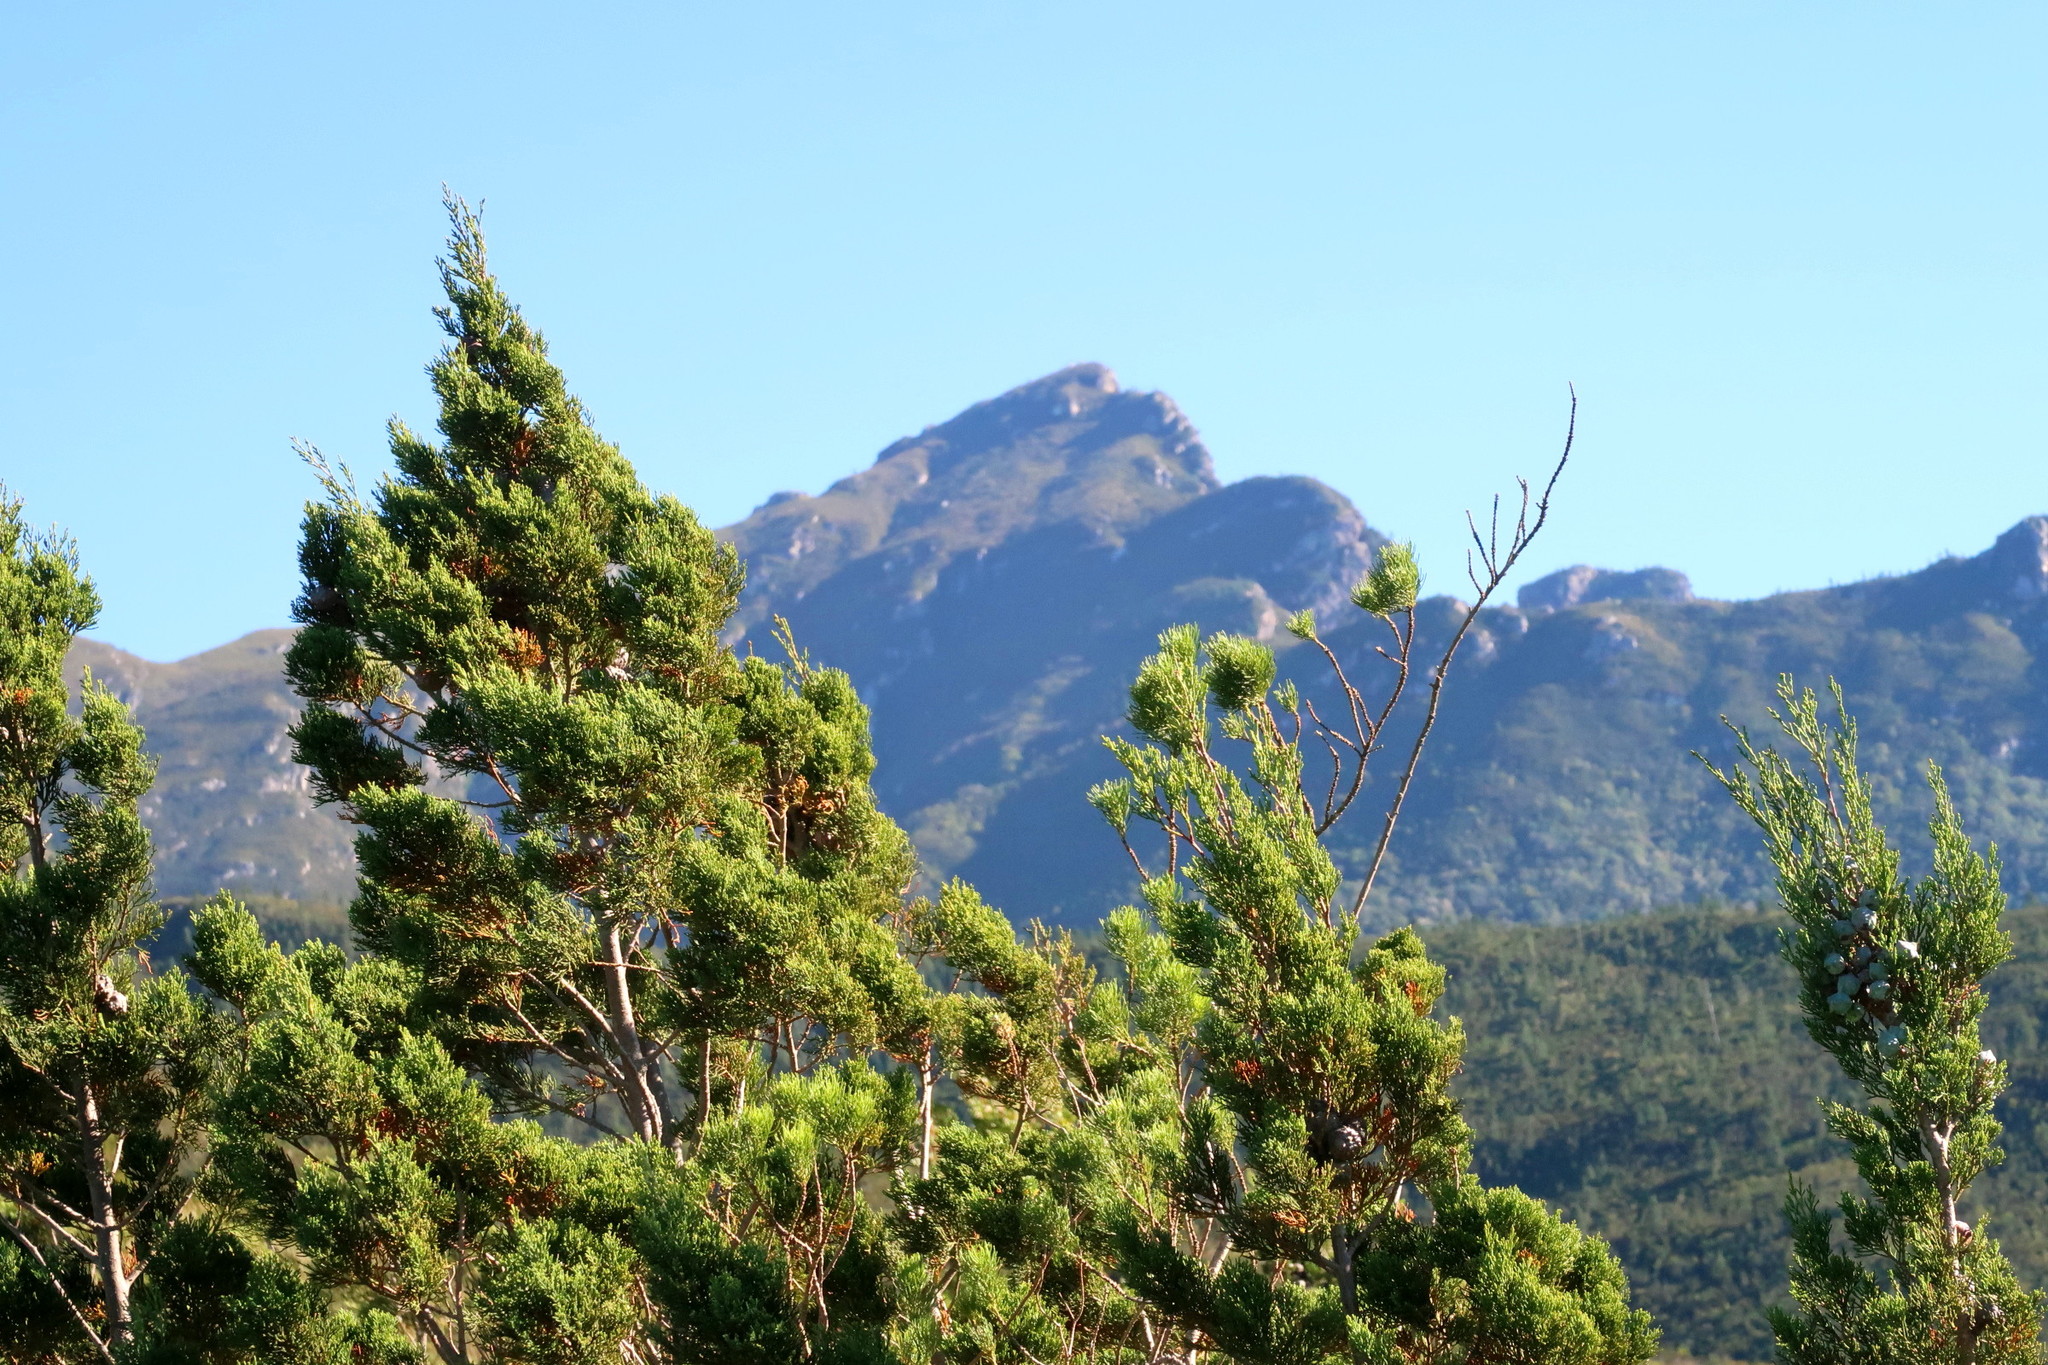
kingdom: Plantae
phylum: Tracheophyta
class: Pinopsida
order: Pinales
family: Cupressaceae
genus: Widdringtonia
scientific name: Widdringtonia nodiflora
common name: Cape cypress
